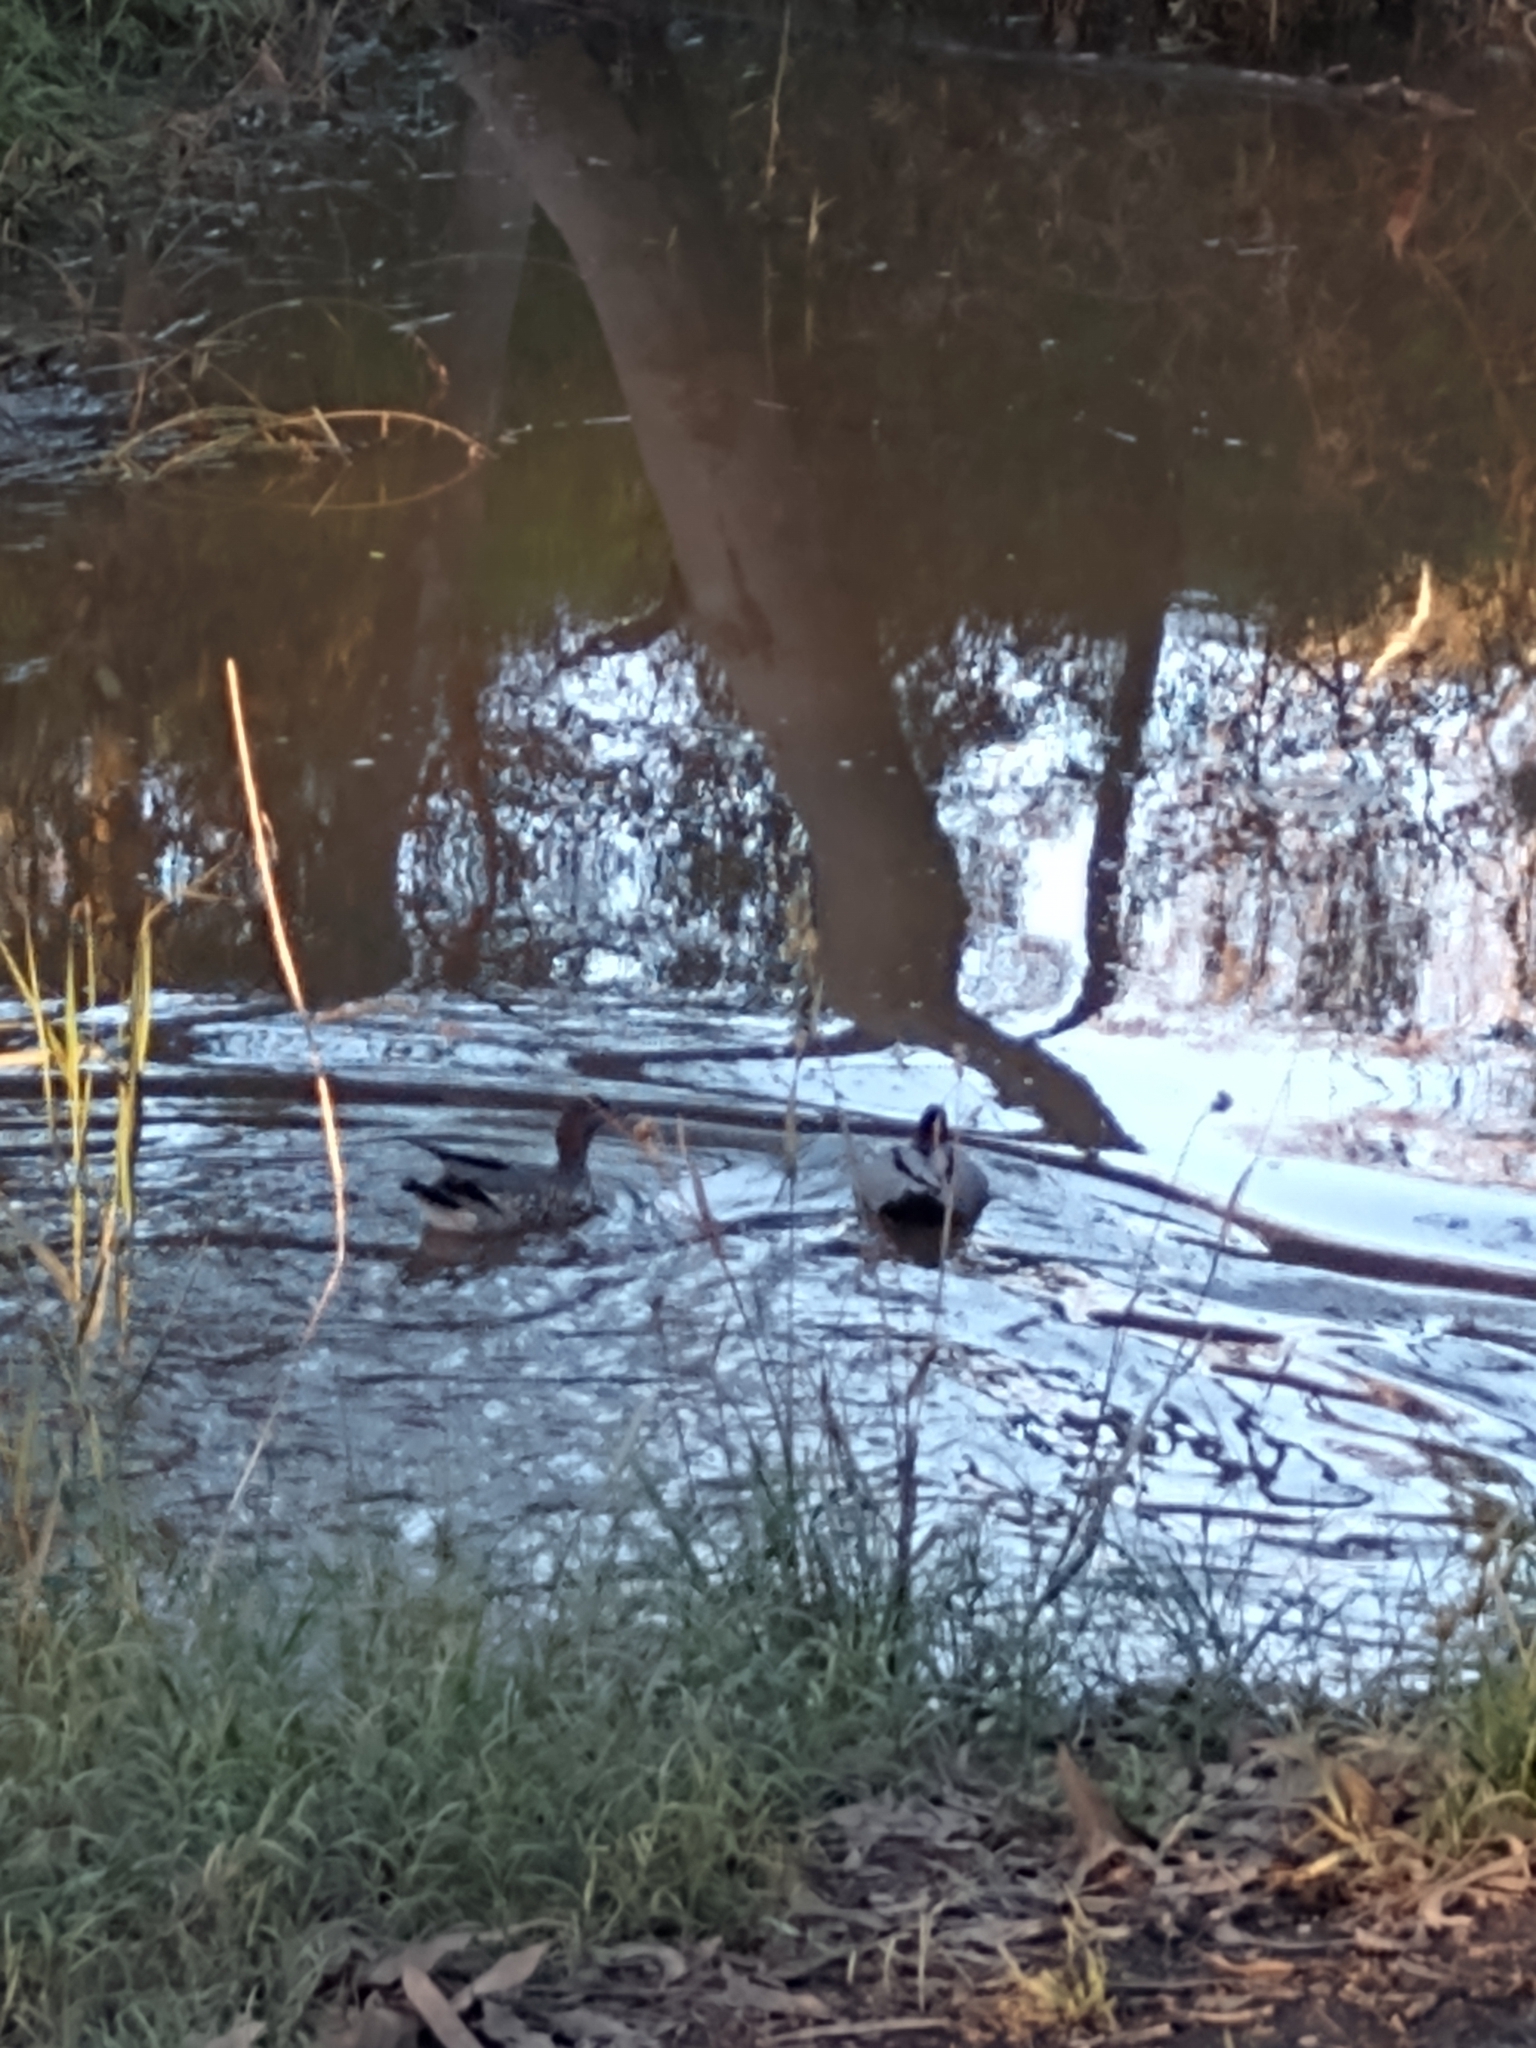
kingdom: Animalia
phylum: Chordata
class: Aves
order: Anseriformes
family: Anatidae
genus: Chenonetta
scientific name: Chenonetta jubata
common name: Maned duck
